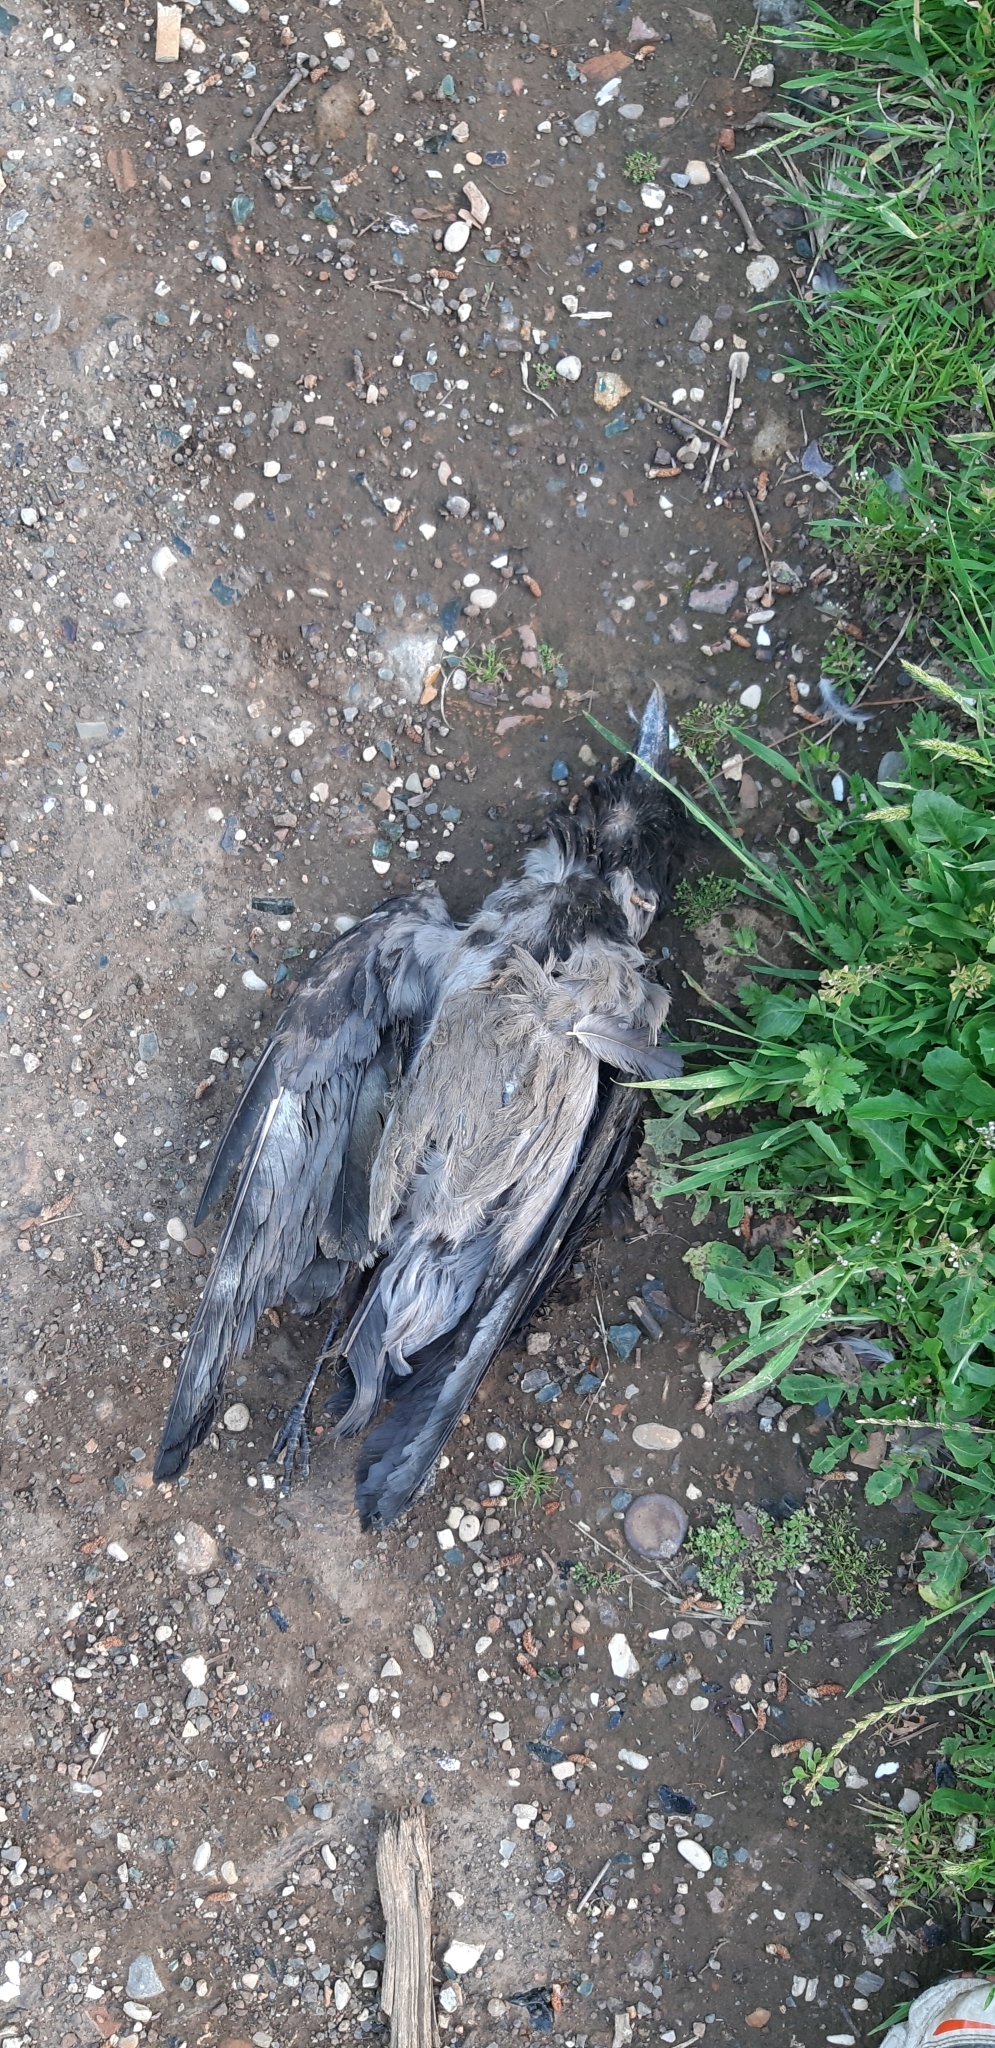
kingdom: Animalia
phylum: Chordata
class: Aves
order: Passeriformes
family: Corvidae
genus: Corvus
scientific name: Corvus cornix
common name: Hooded crow
